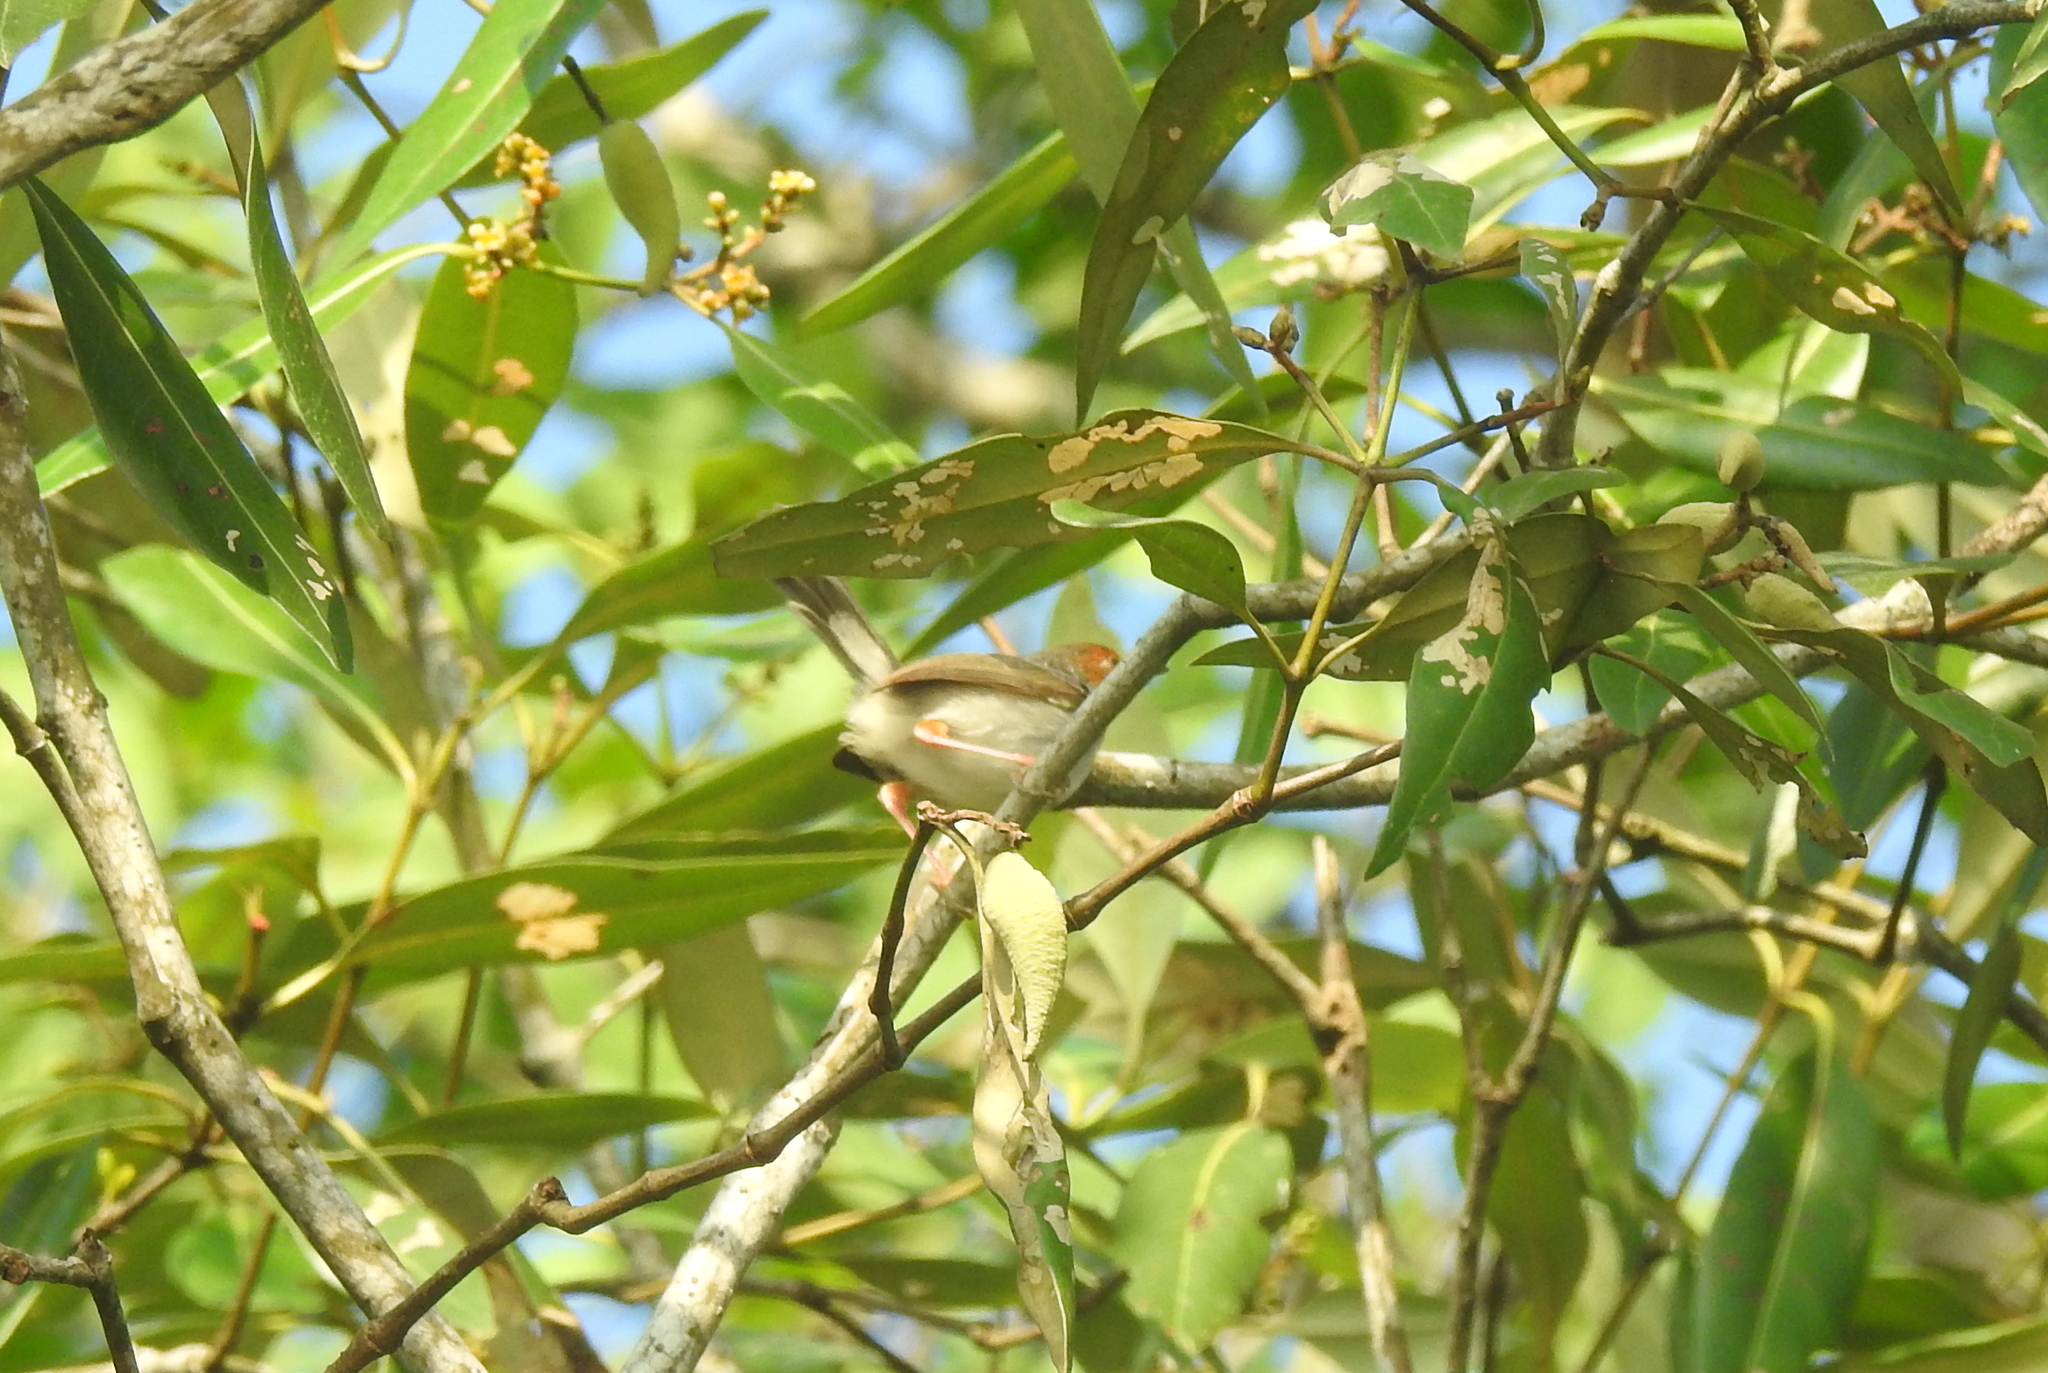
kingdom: Animalia
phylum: Chordata
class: Aves
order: Passeriformes
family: Cisticolidae
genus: Orthotomus
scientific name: Orthotomus ruficeps
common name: Ashy tailorbird
